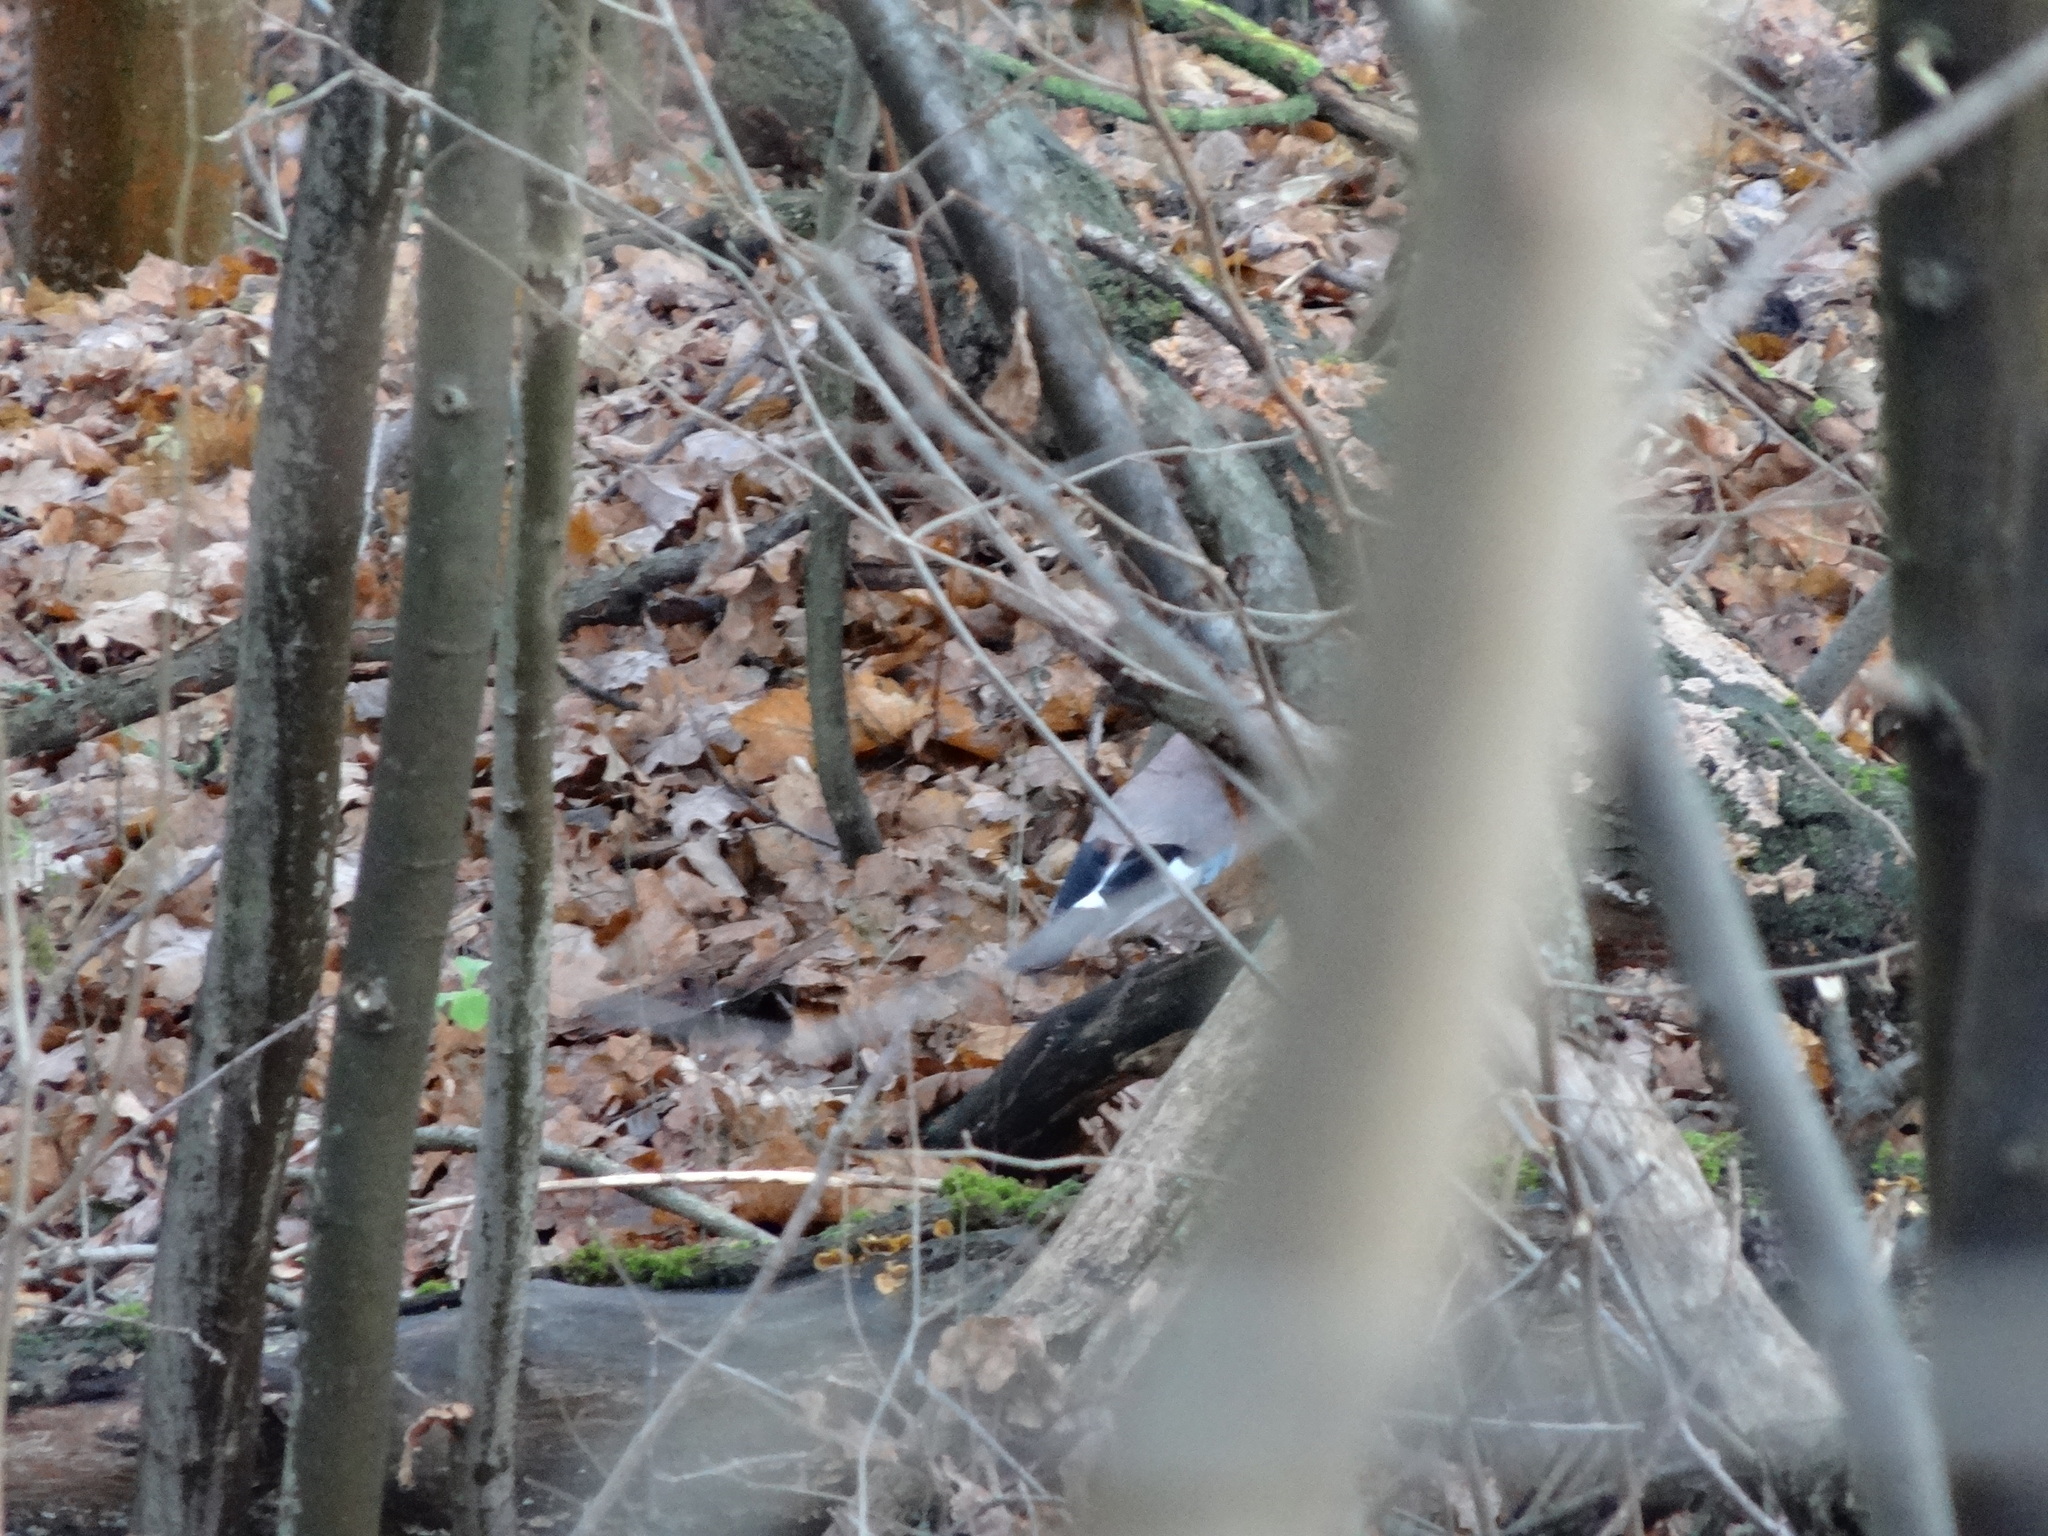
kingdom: Animalia
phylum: Chordata
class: Aves
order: Passeriformes
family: Corvidae
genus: Garrulus
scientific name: Garrulus glandarius
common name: Eurasian jay
